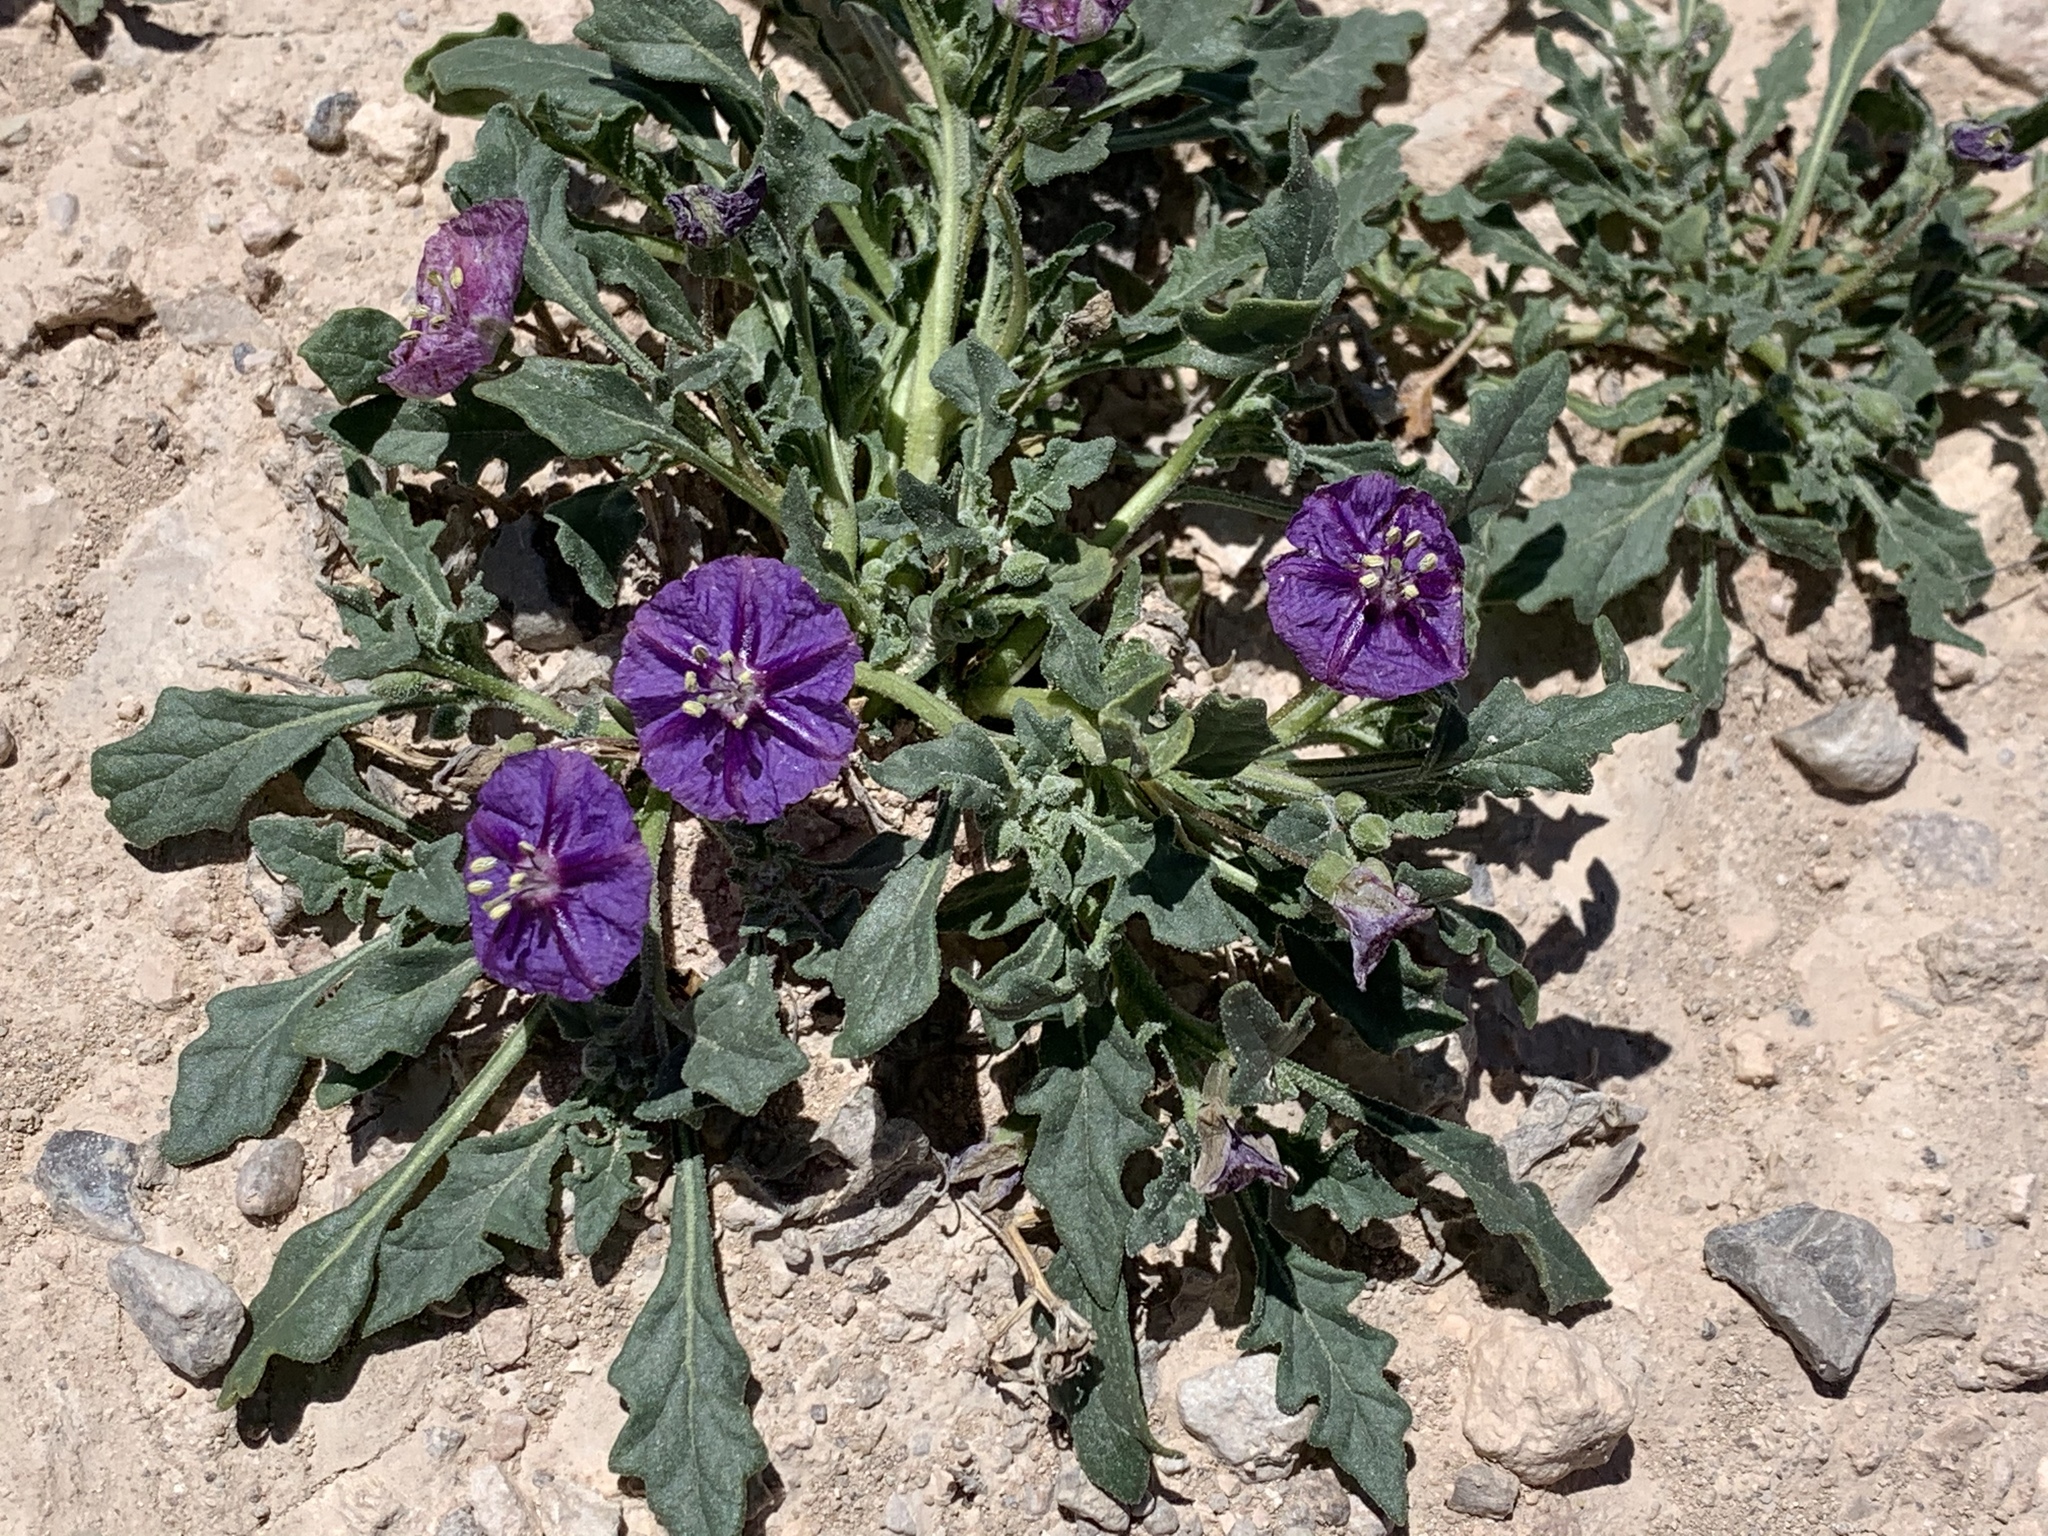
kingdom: Plantae
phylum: Tracheophyta
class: Magnoliopsida
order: Solanales
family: Solanaceae
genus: Quincula
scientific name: Quincula lobata
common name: Purple-ground-cherry
